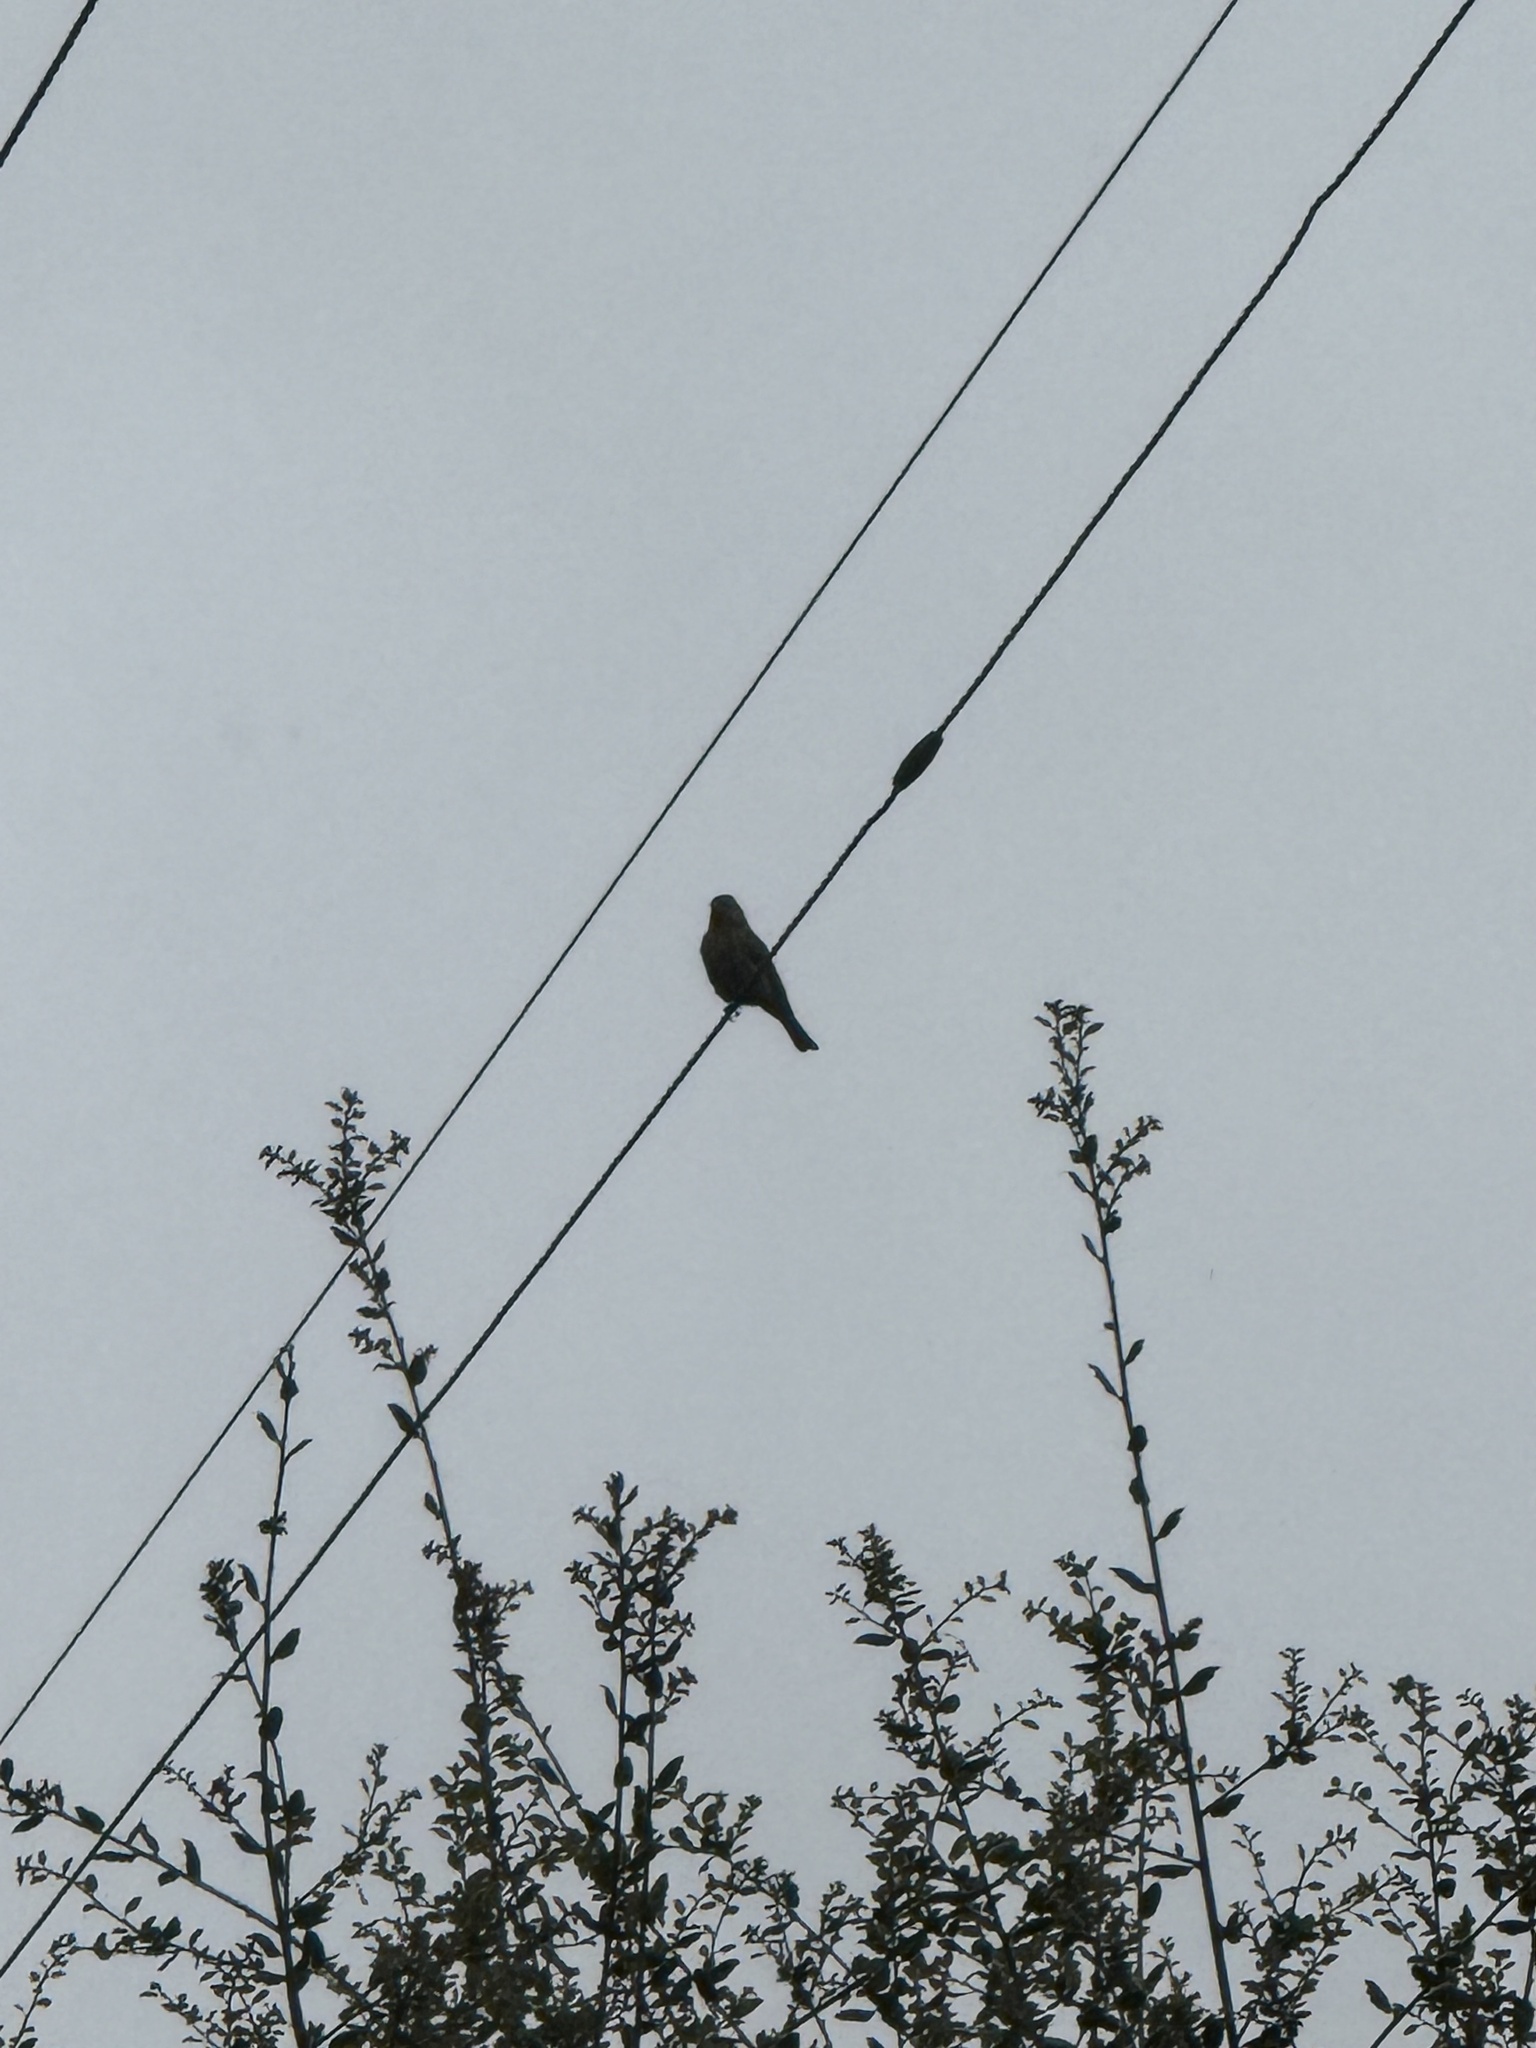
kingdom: Animalia
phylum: Chordata
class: Aves
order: Passeriformes
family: Fringillidae
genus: Haemorhous
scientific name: Haemorhous mexicanus
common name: House finch
